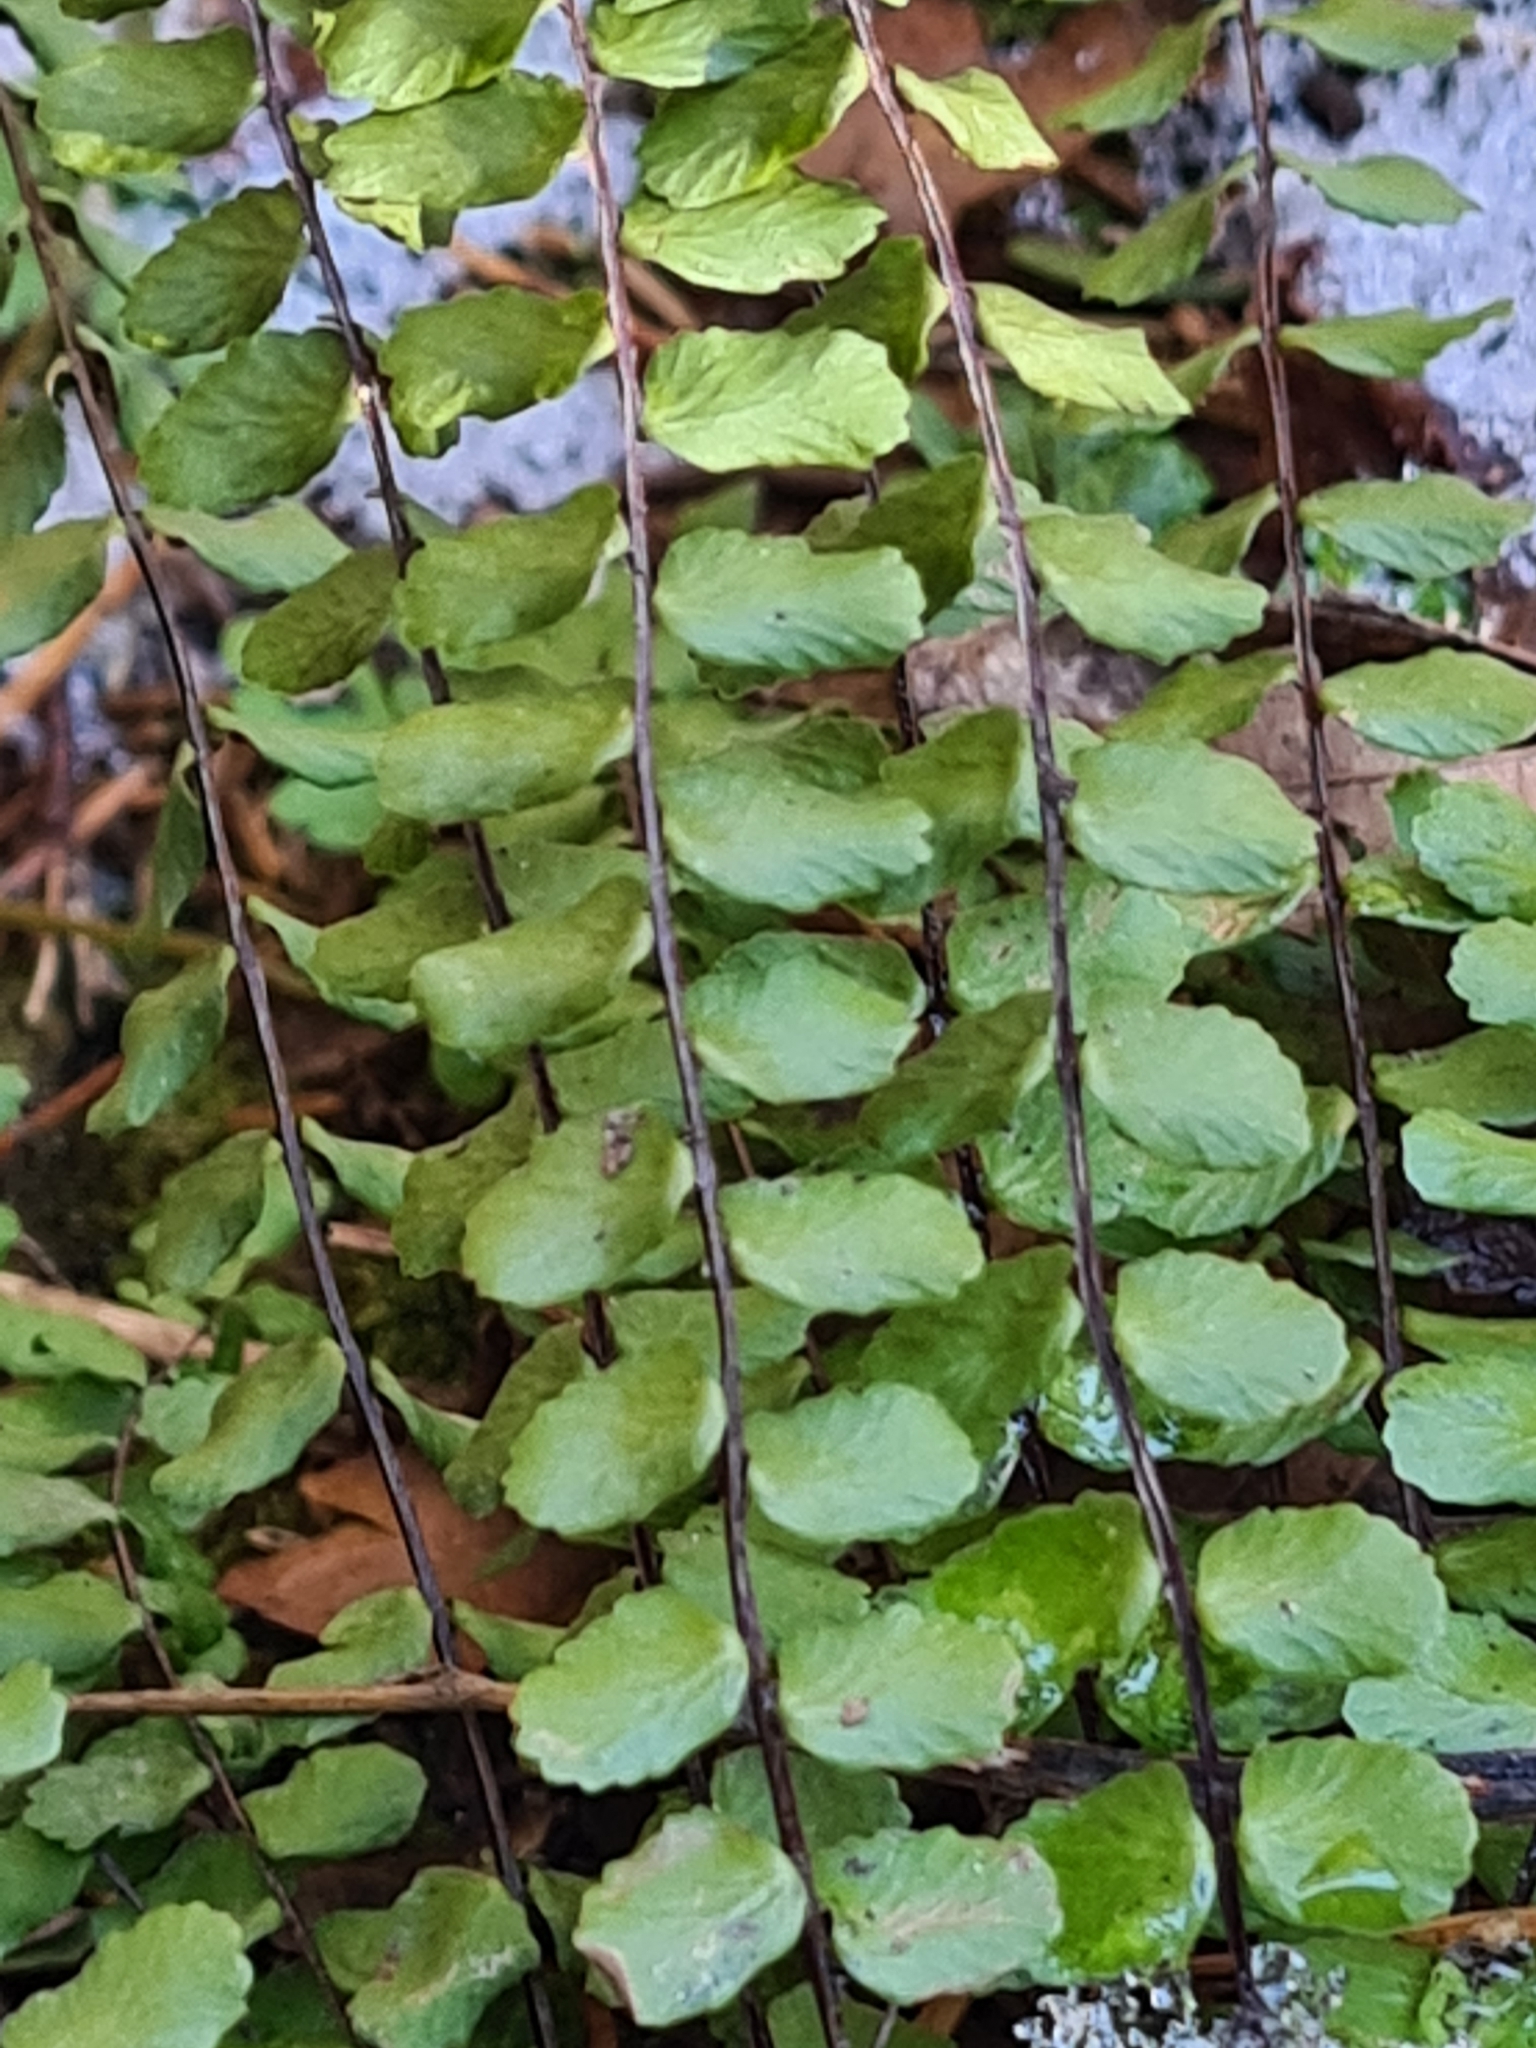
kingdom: Plantae
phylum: Tracheophyta
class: Polypodiopsida
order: Polypodiales
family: Aspleniaceae
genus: Asplenium
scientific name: Asplenium trichomanes
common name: Maidenhair spleenwort
